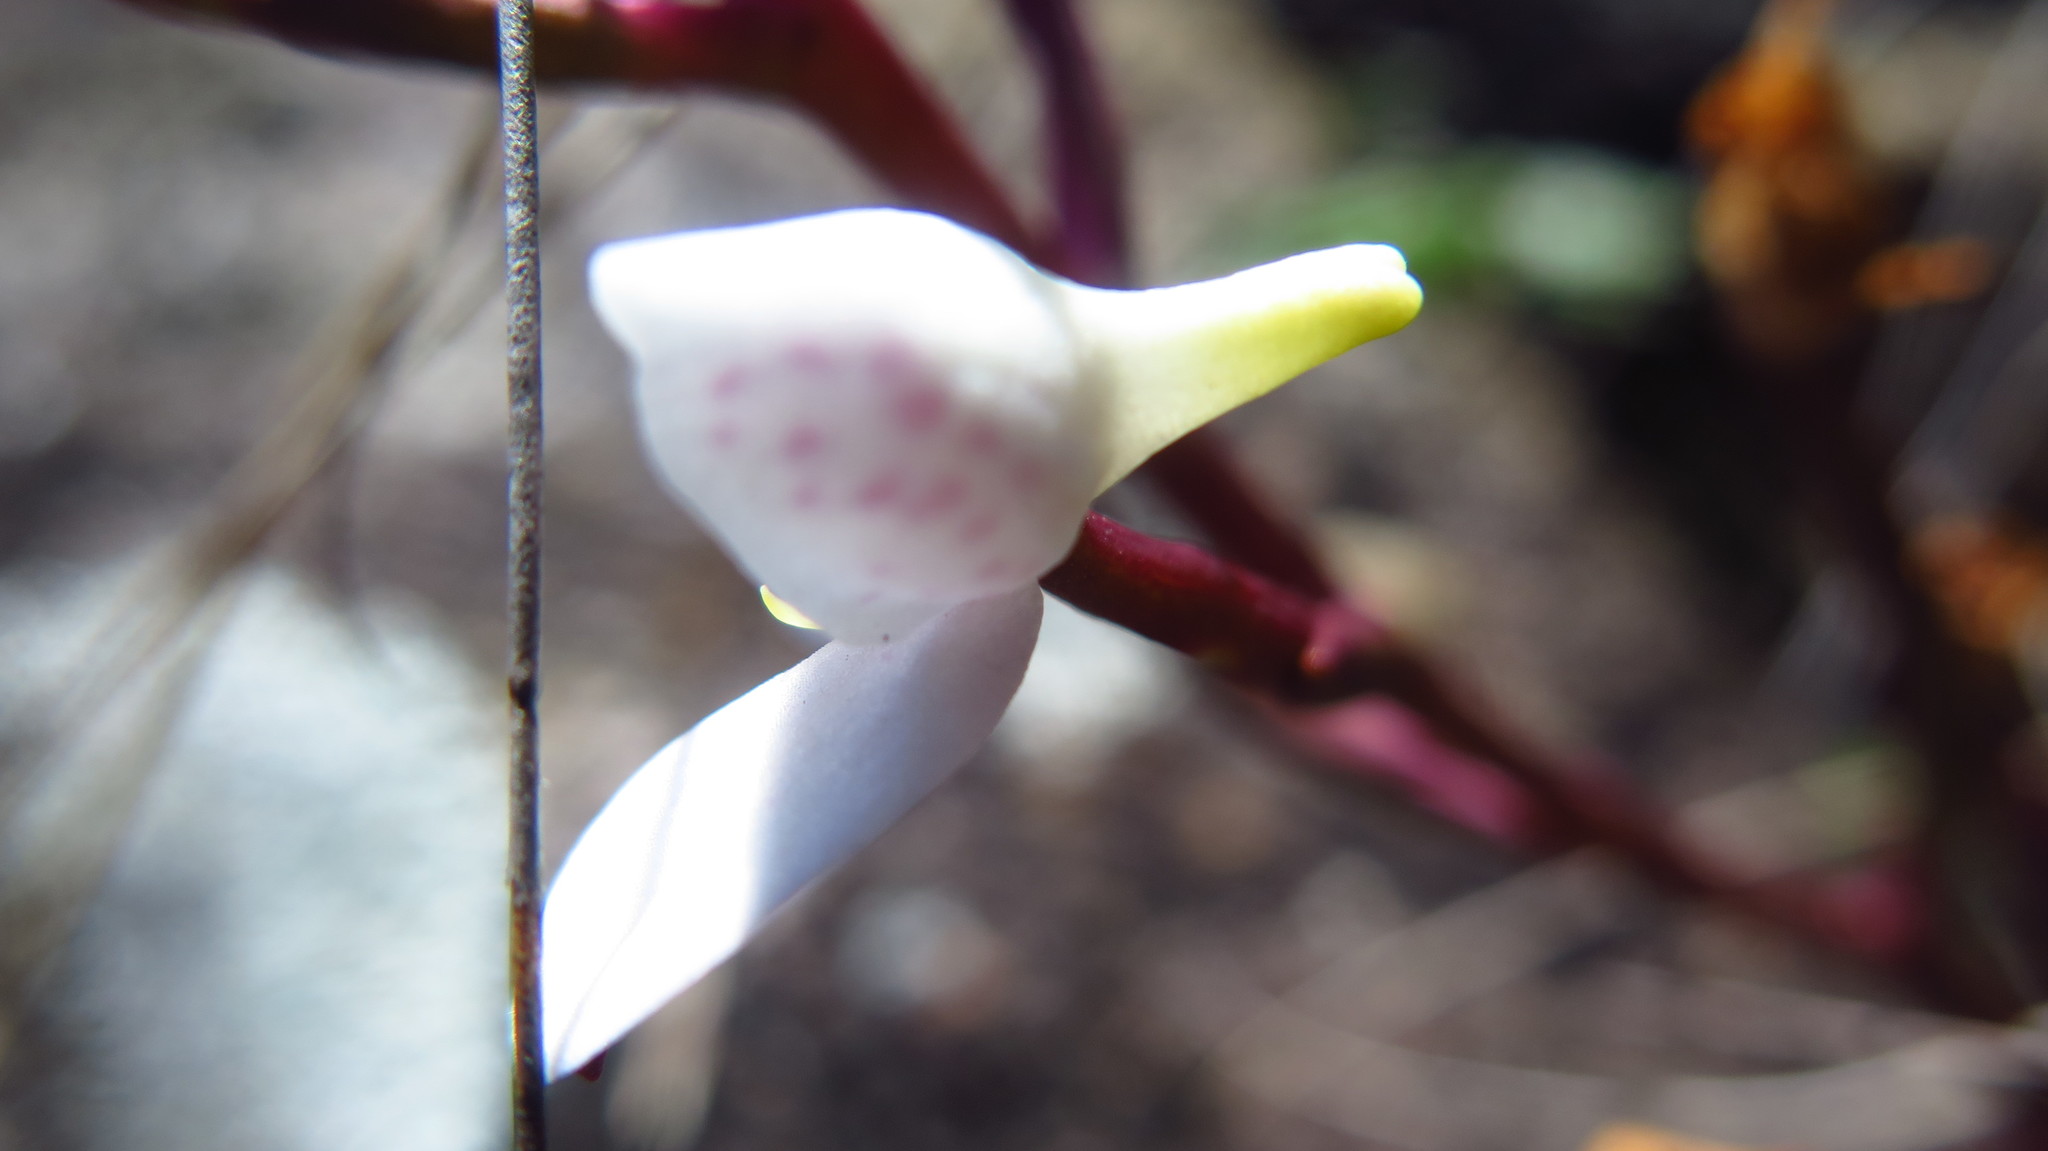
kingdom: Plantae
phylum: Tracheophyta
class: Liliopsida
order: Asparagales
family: Orchidaceae
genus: Disa
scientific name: Disa tripetaloides
